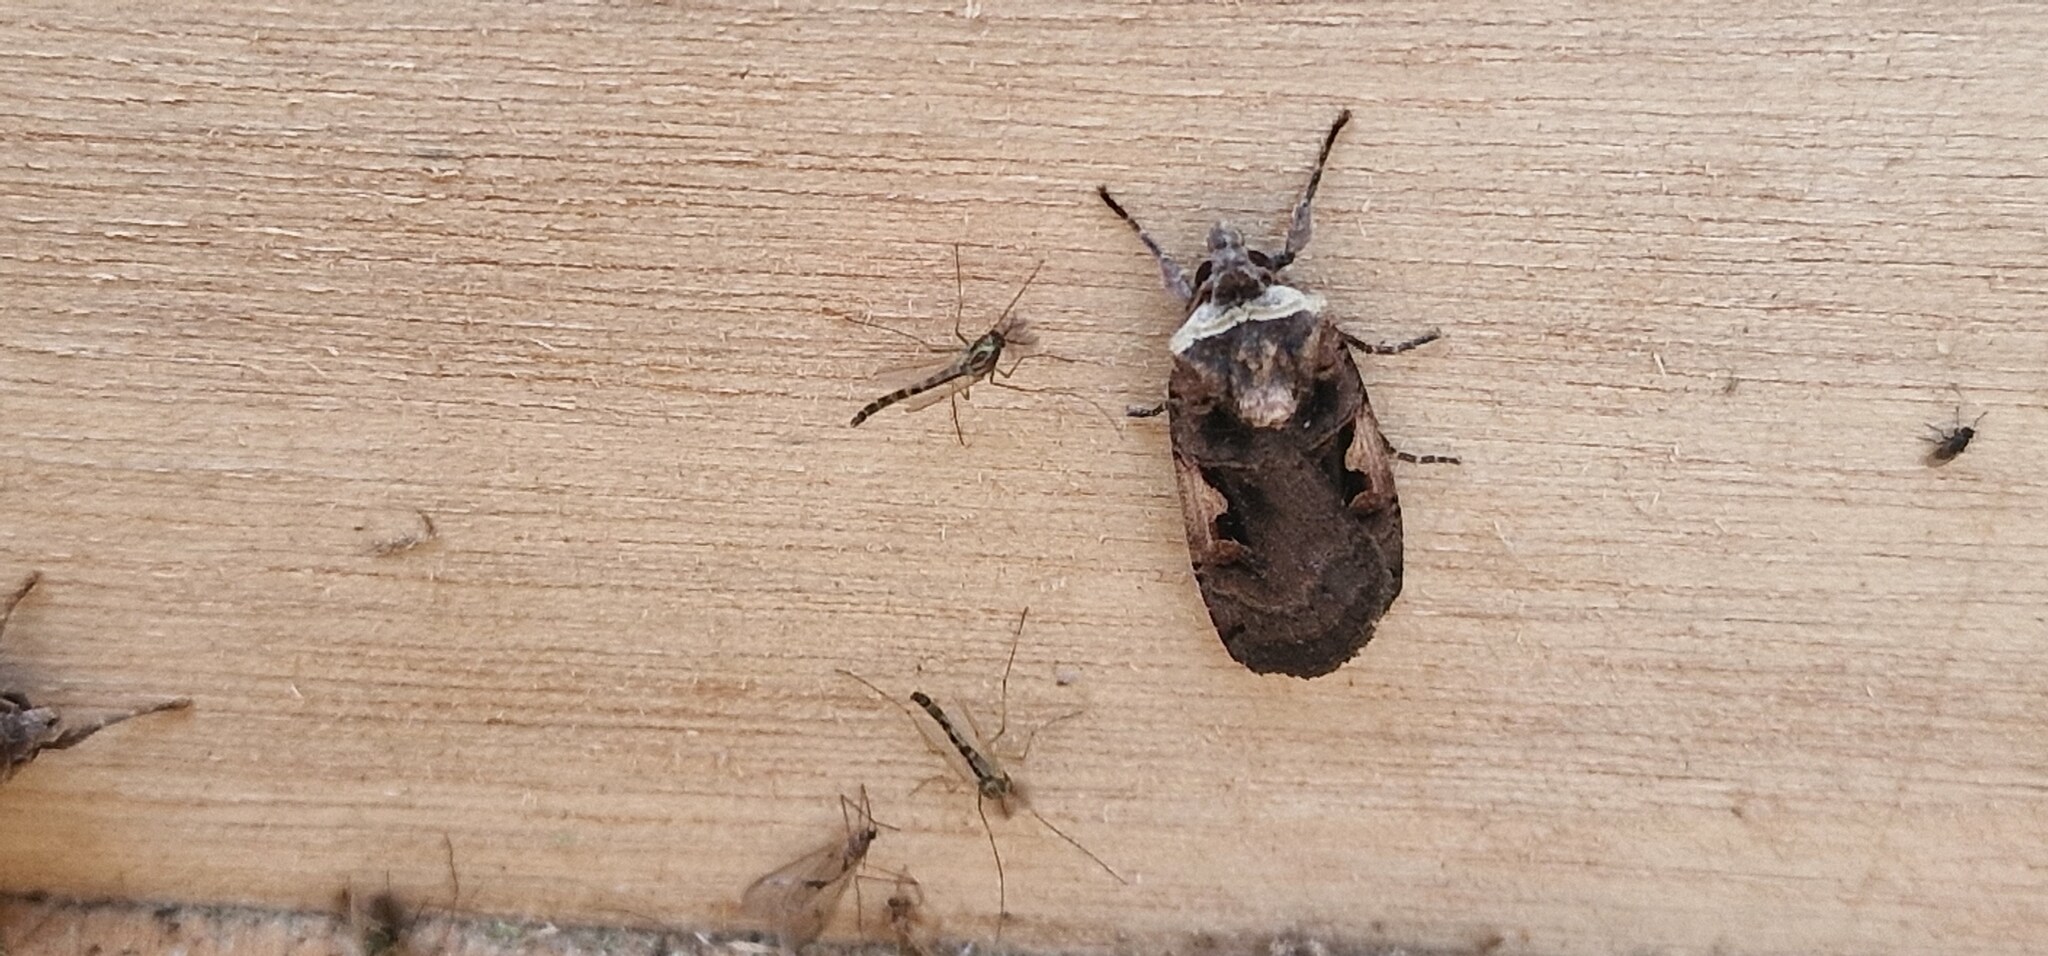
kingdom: Animalia
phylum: Arthropoda
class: Insecta
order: Lepidoptera
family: Noctuidae
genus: Xestia
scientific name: Xestia c-nigrum
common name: Setaceous hebrew character
